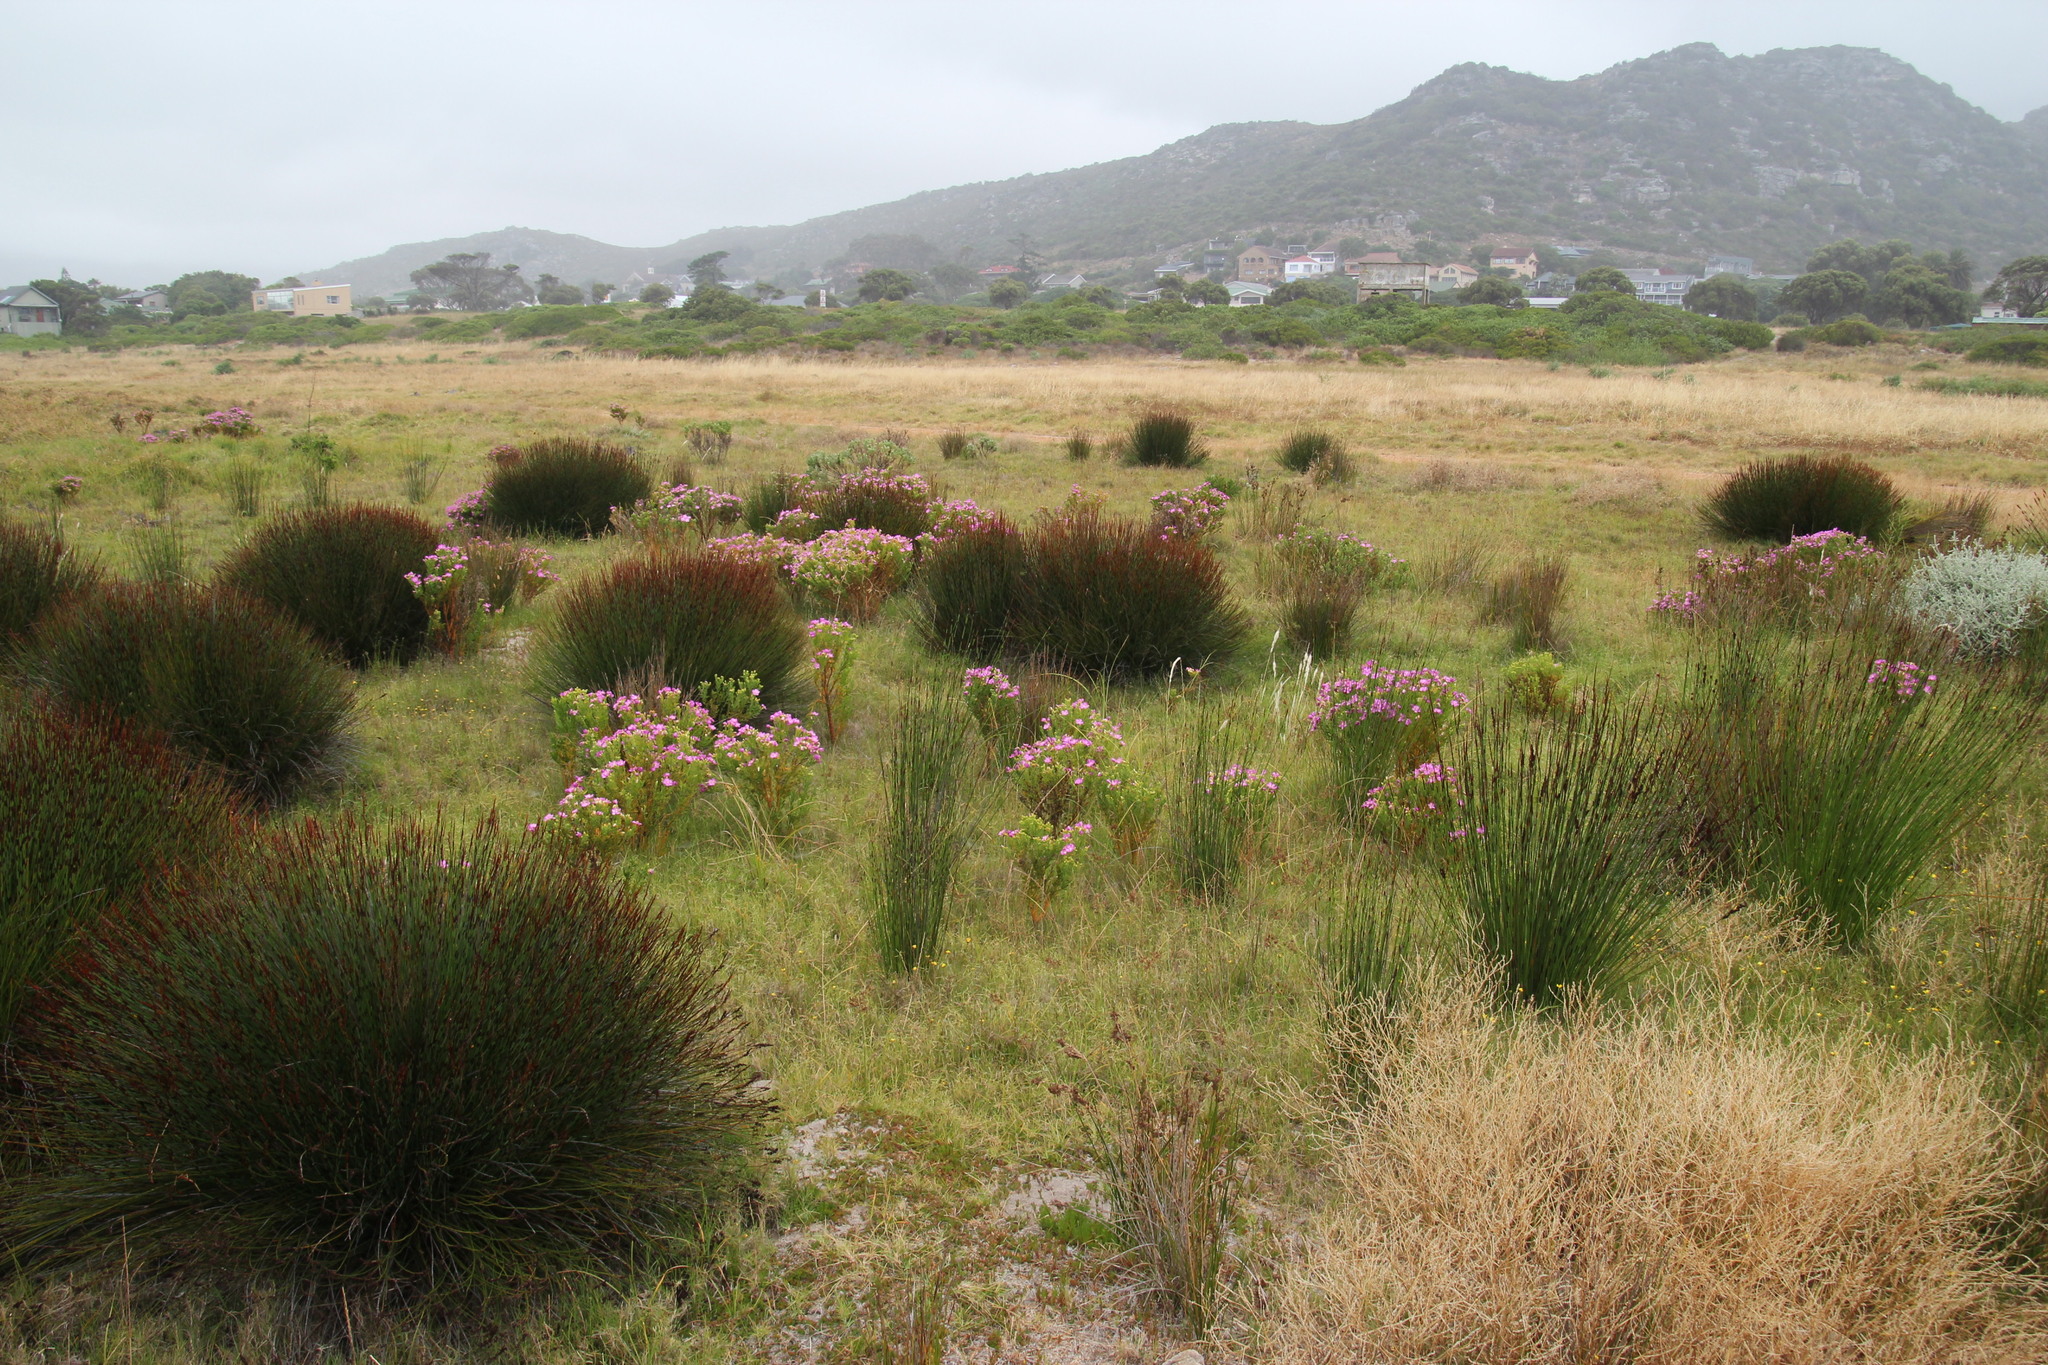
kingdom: Plantae
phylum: Tracheophyta
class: Magnoliopsida
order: Gentianales
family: Gentianaceae
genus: Orphium
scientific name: Orphium frutescens
